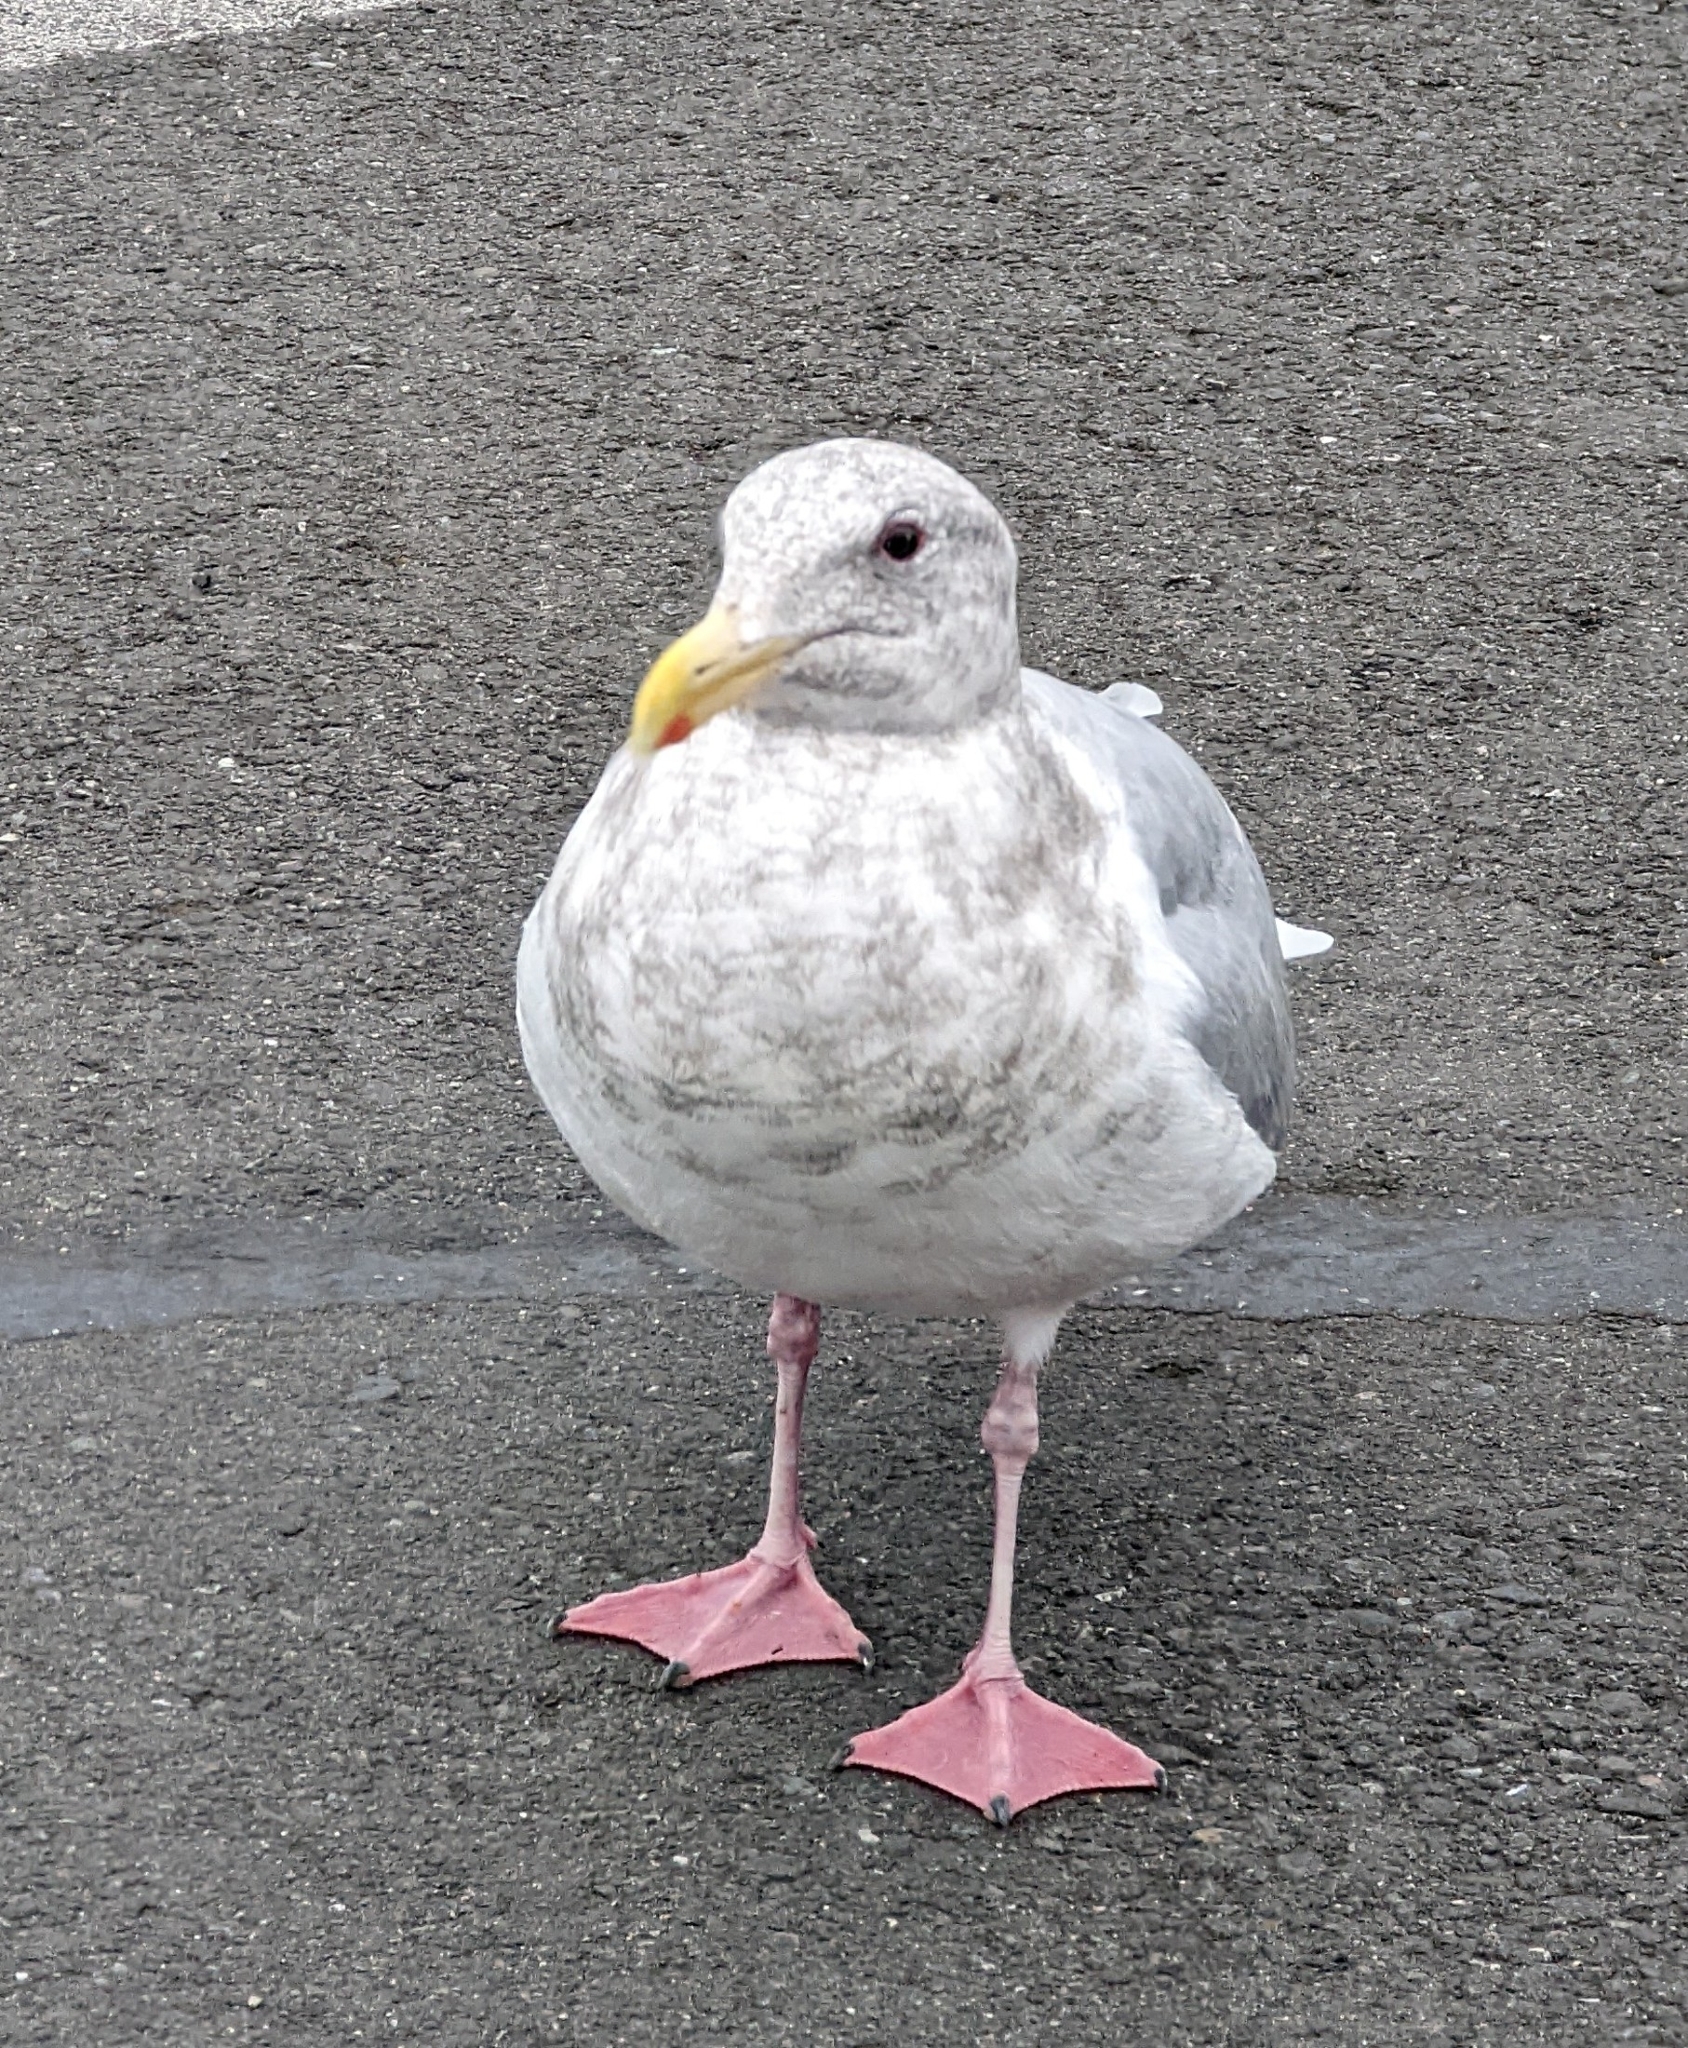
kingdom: Animalia
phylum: Chordata
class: Aves
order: Charadriiformes
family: Laridae
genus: Larus
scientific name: Larus glaucescens
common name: Glaucous-winged gull
